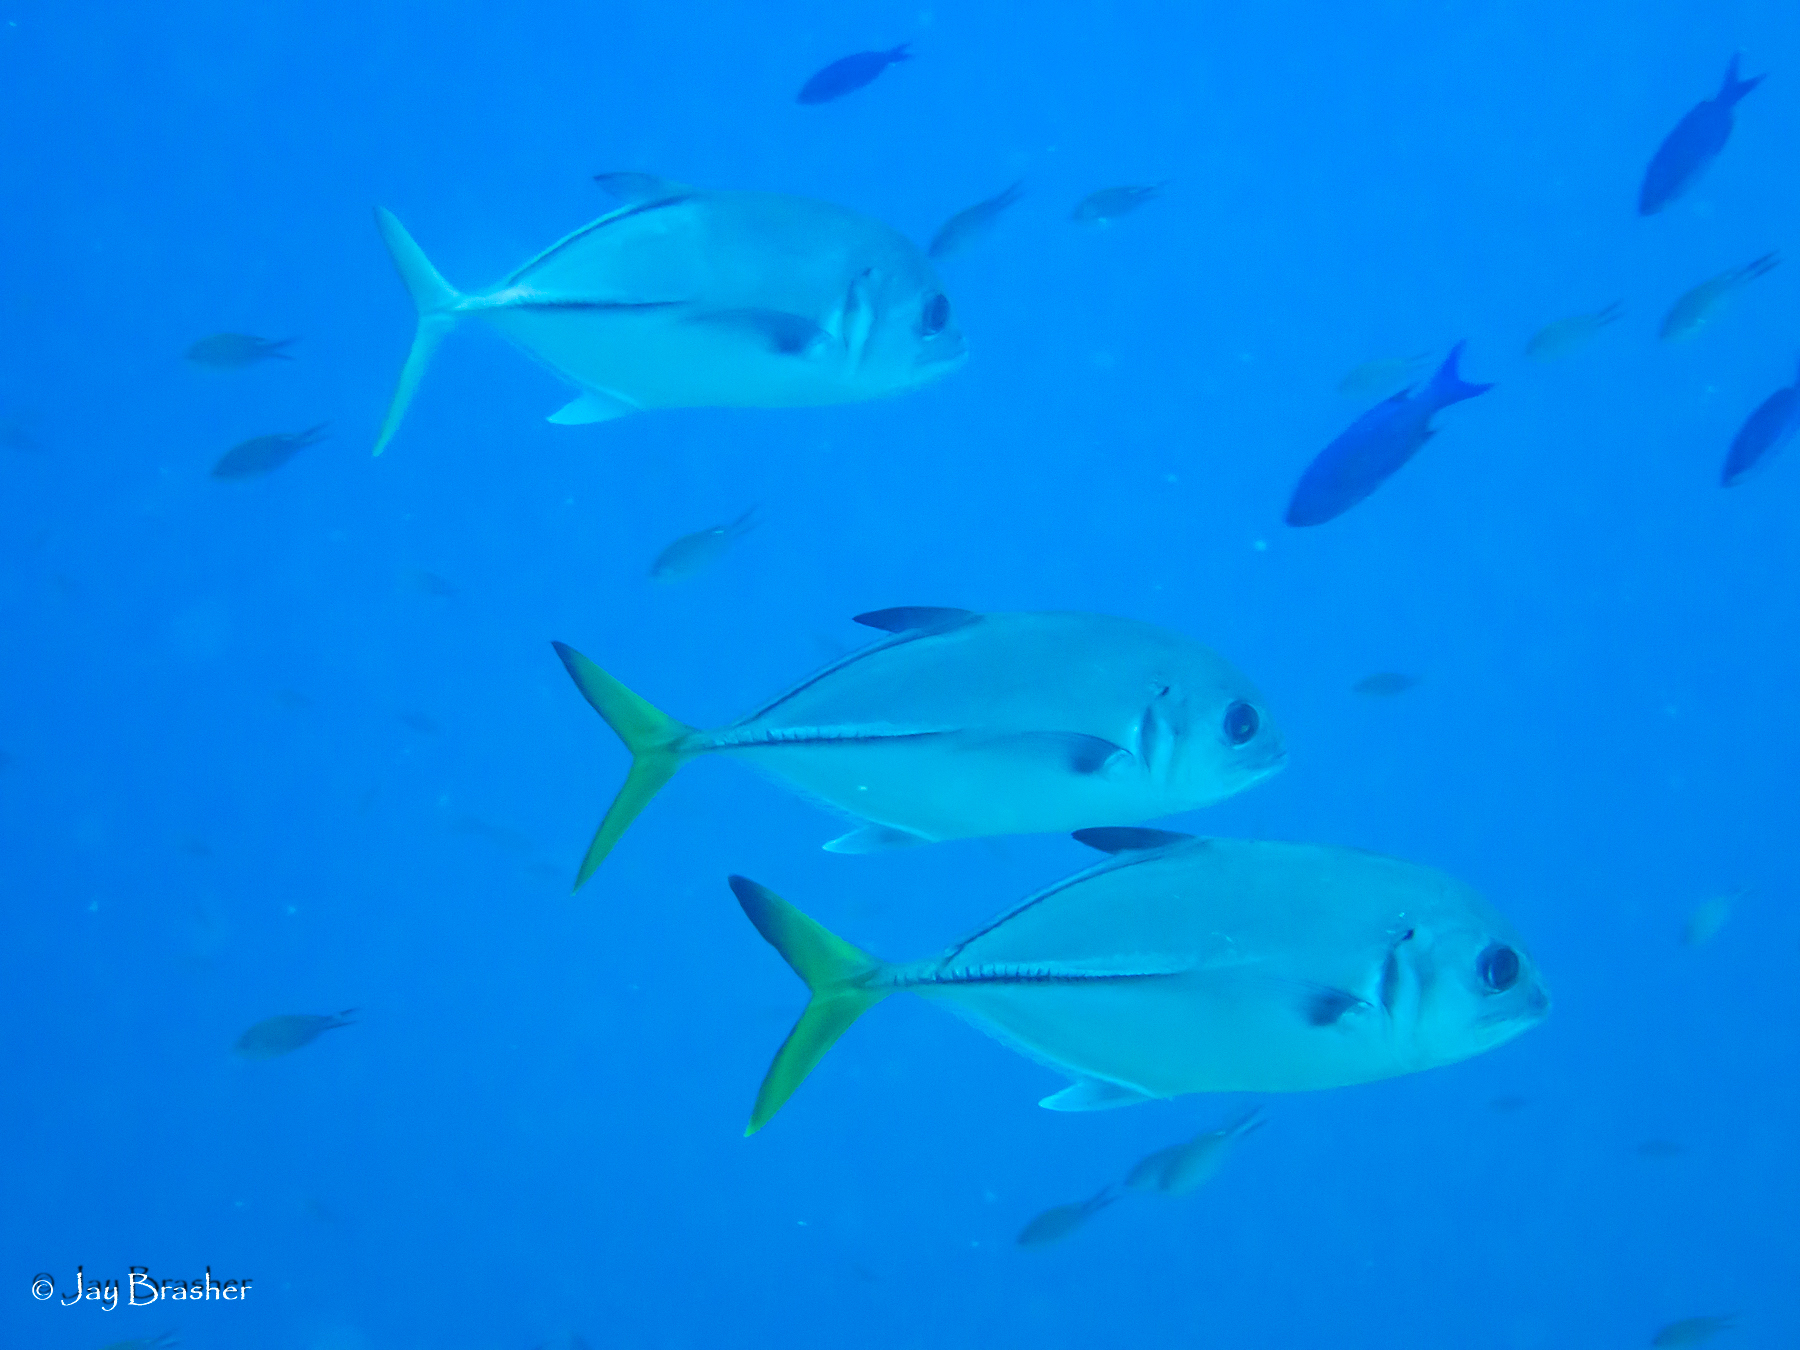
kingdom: Animalia
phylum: Chordata
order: Perciformes
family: Carangidae
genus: Caranx
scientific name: Caranx latus
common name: Horse eye jack
